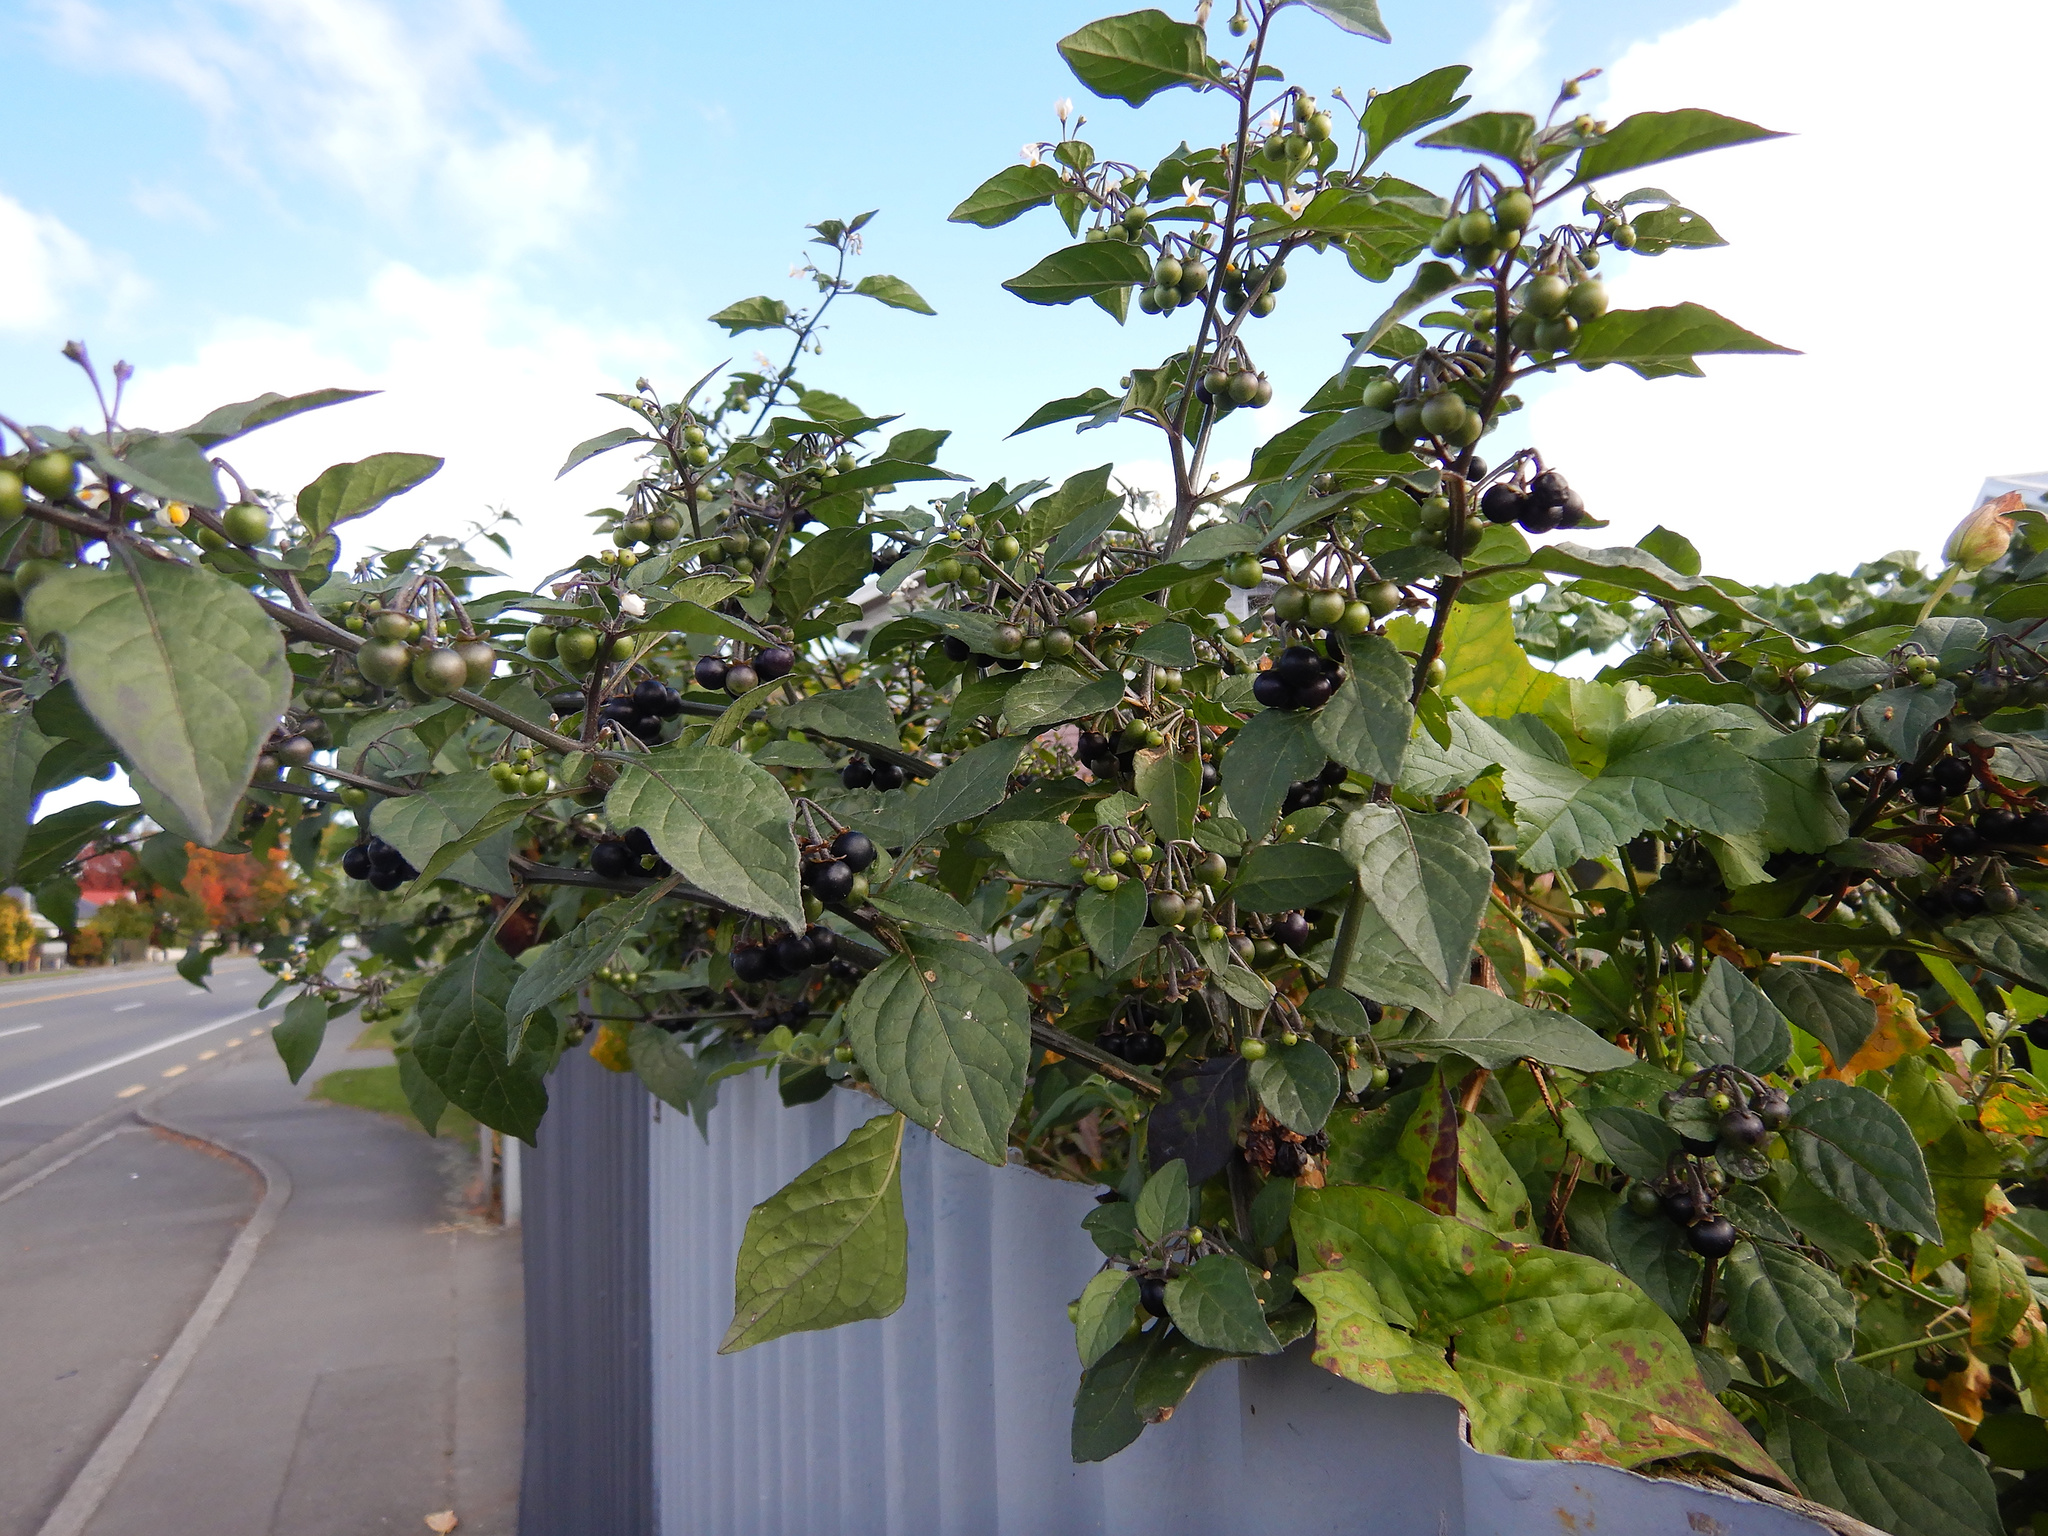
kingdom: Plantae
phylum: Tracheophyta
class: Magnoliopsida
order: Solanales
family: Solanaceae
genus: Solanum
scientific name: Solanum nigrum
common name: Black nightshade
